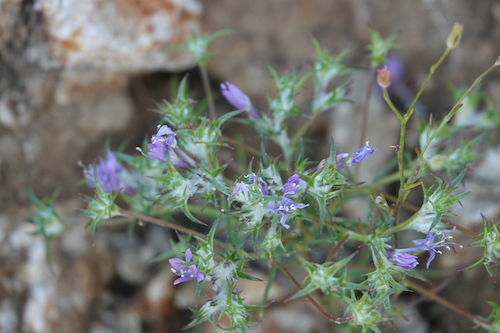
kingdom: Plantae
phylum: Tracheophyta
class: Magnoliopsida
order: Ericales
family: Polemoniaceae
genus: Eriastrum
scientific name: Eriastrum eremicum
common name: Desert eriastrum
